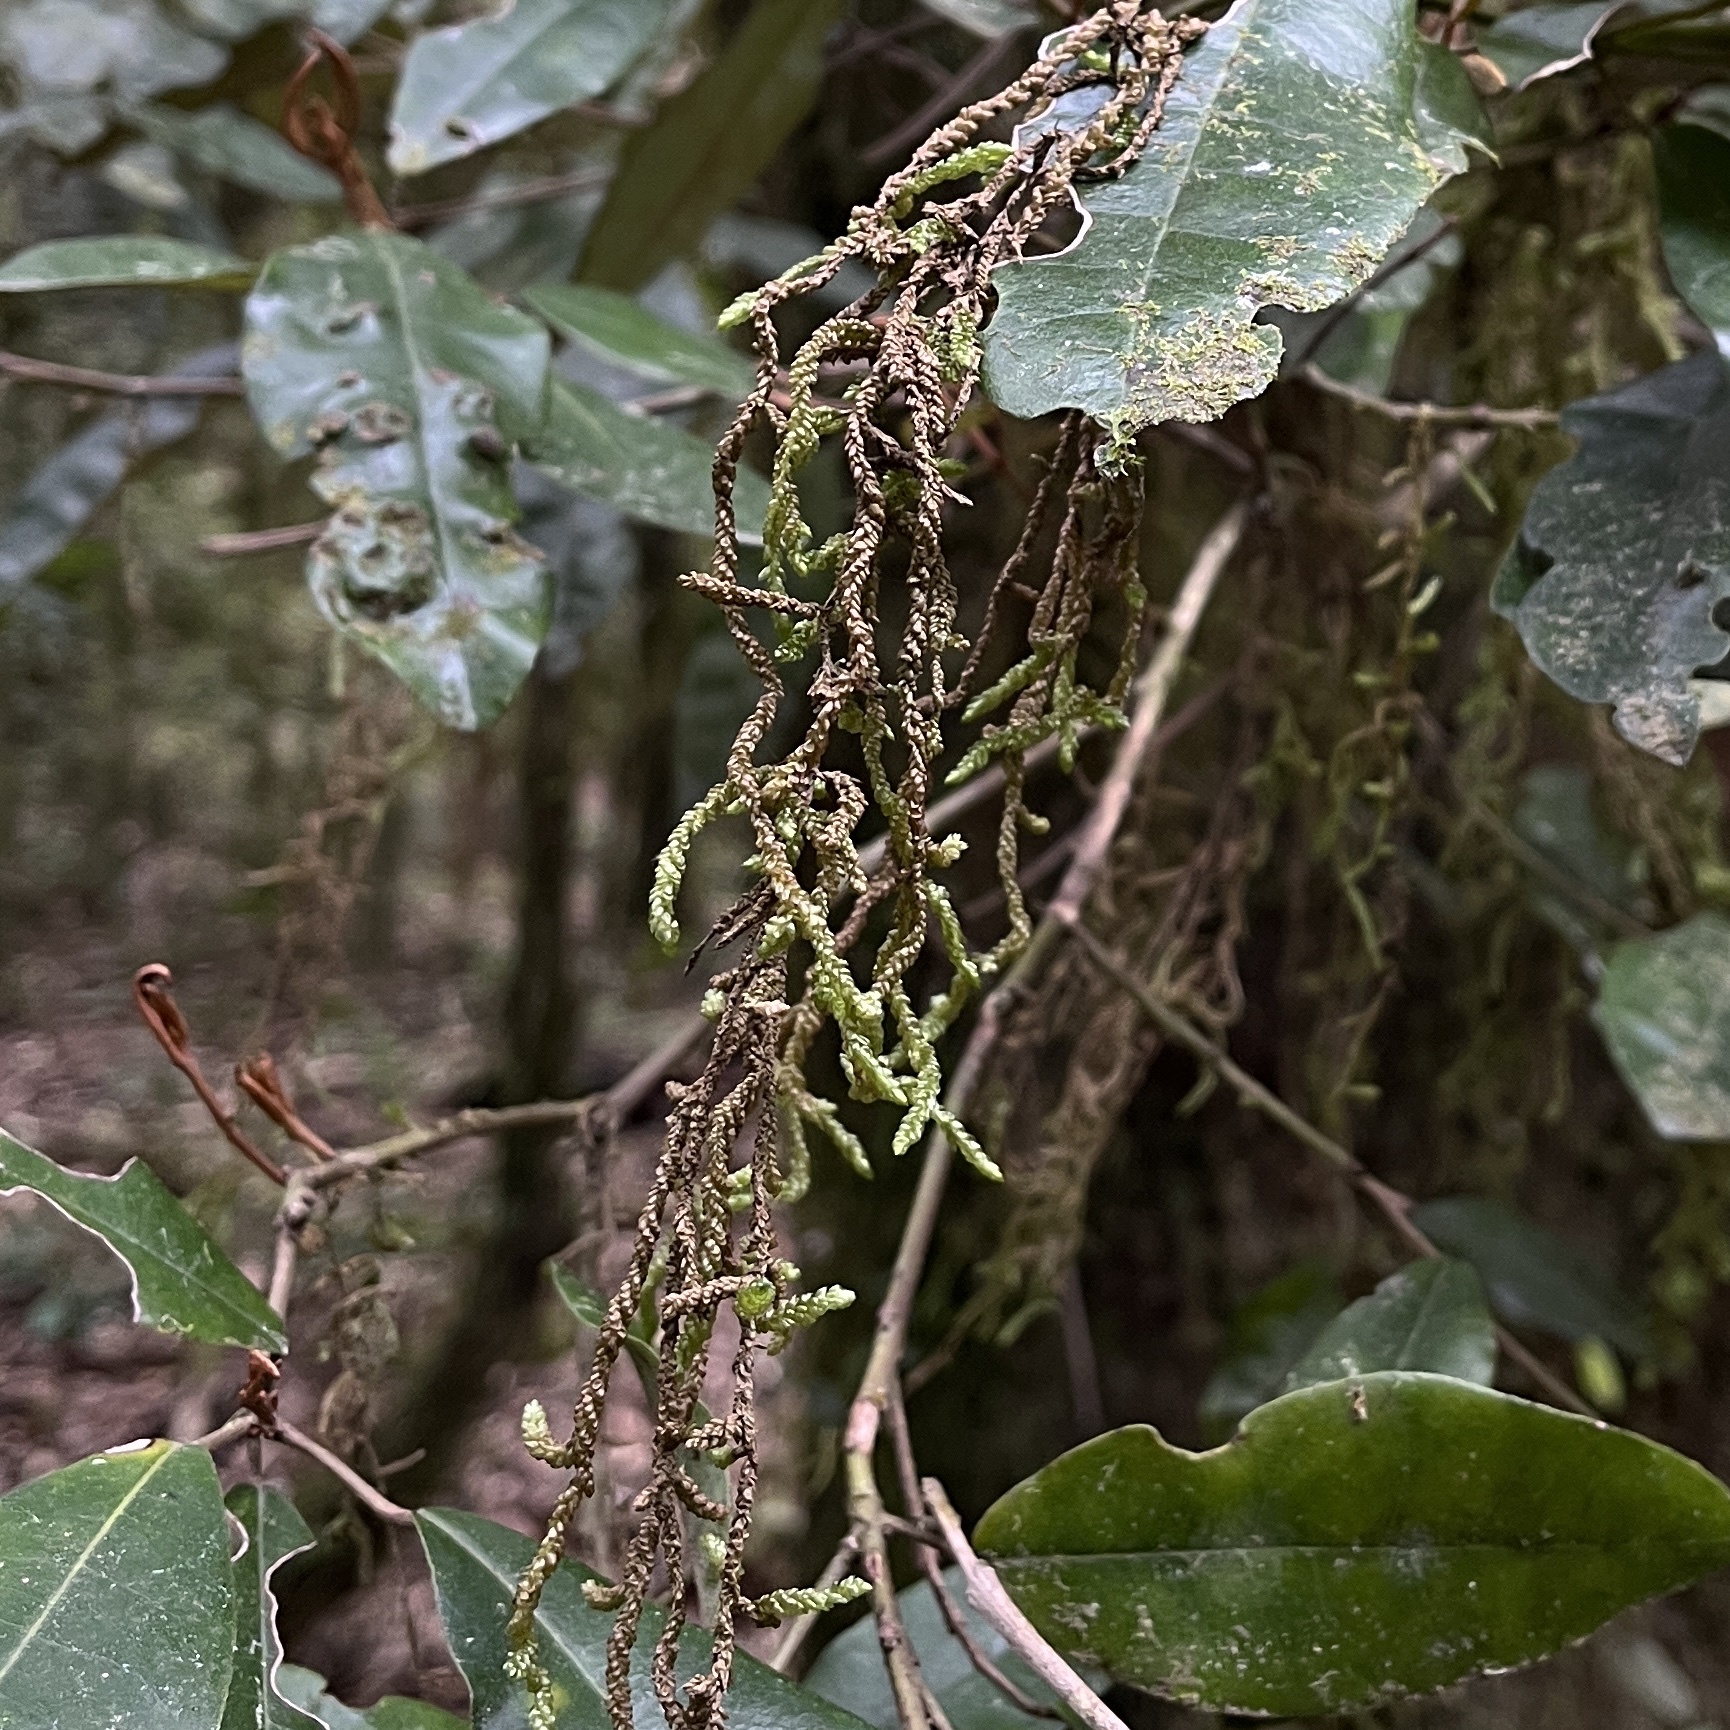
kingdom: Plantae
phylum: Bryophyta
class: Bryopsida
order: Hypnales
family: Lembophyllaceae
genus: Weymouthia
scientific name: Weymouthia cochlearifolia
